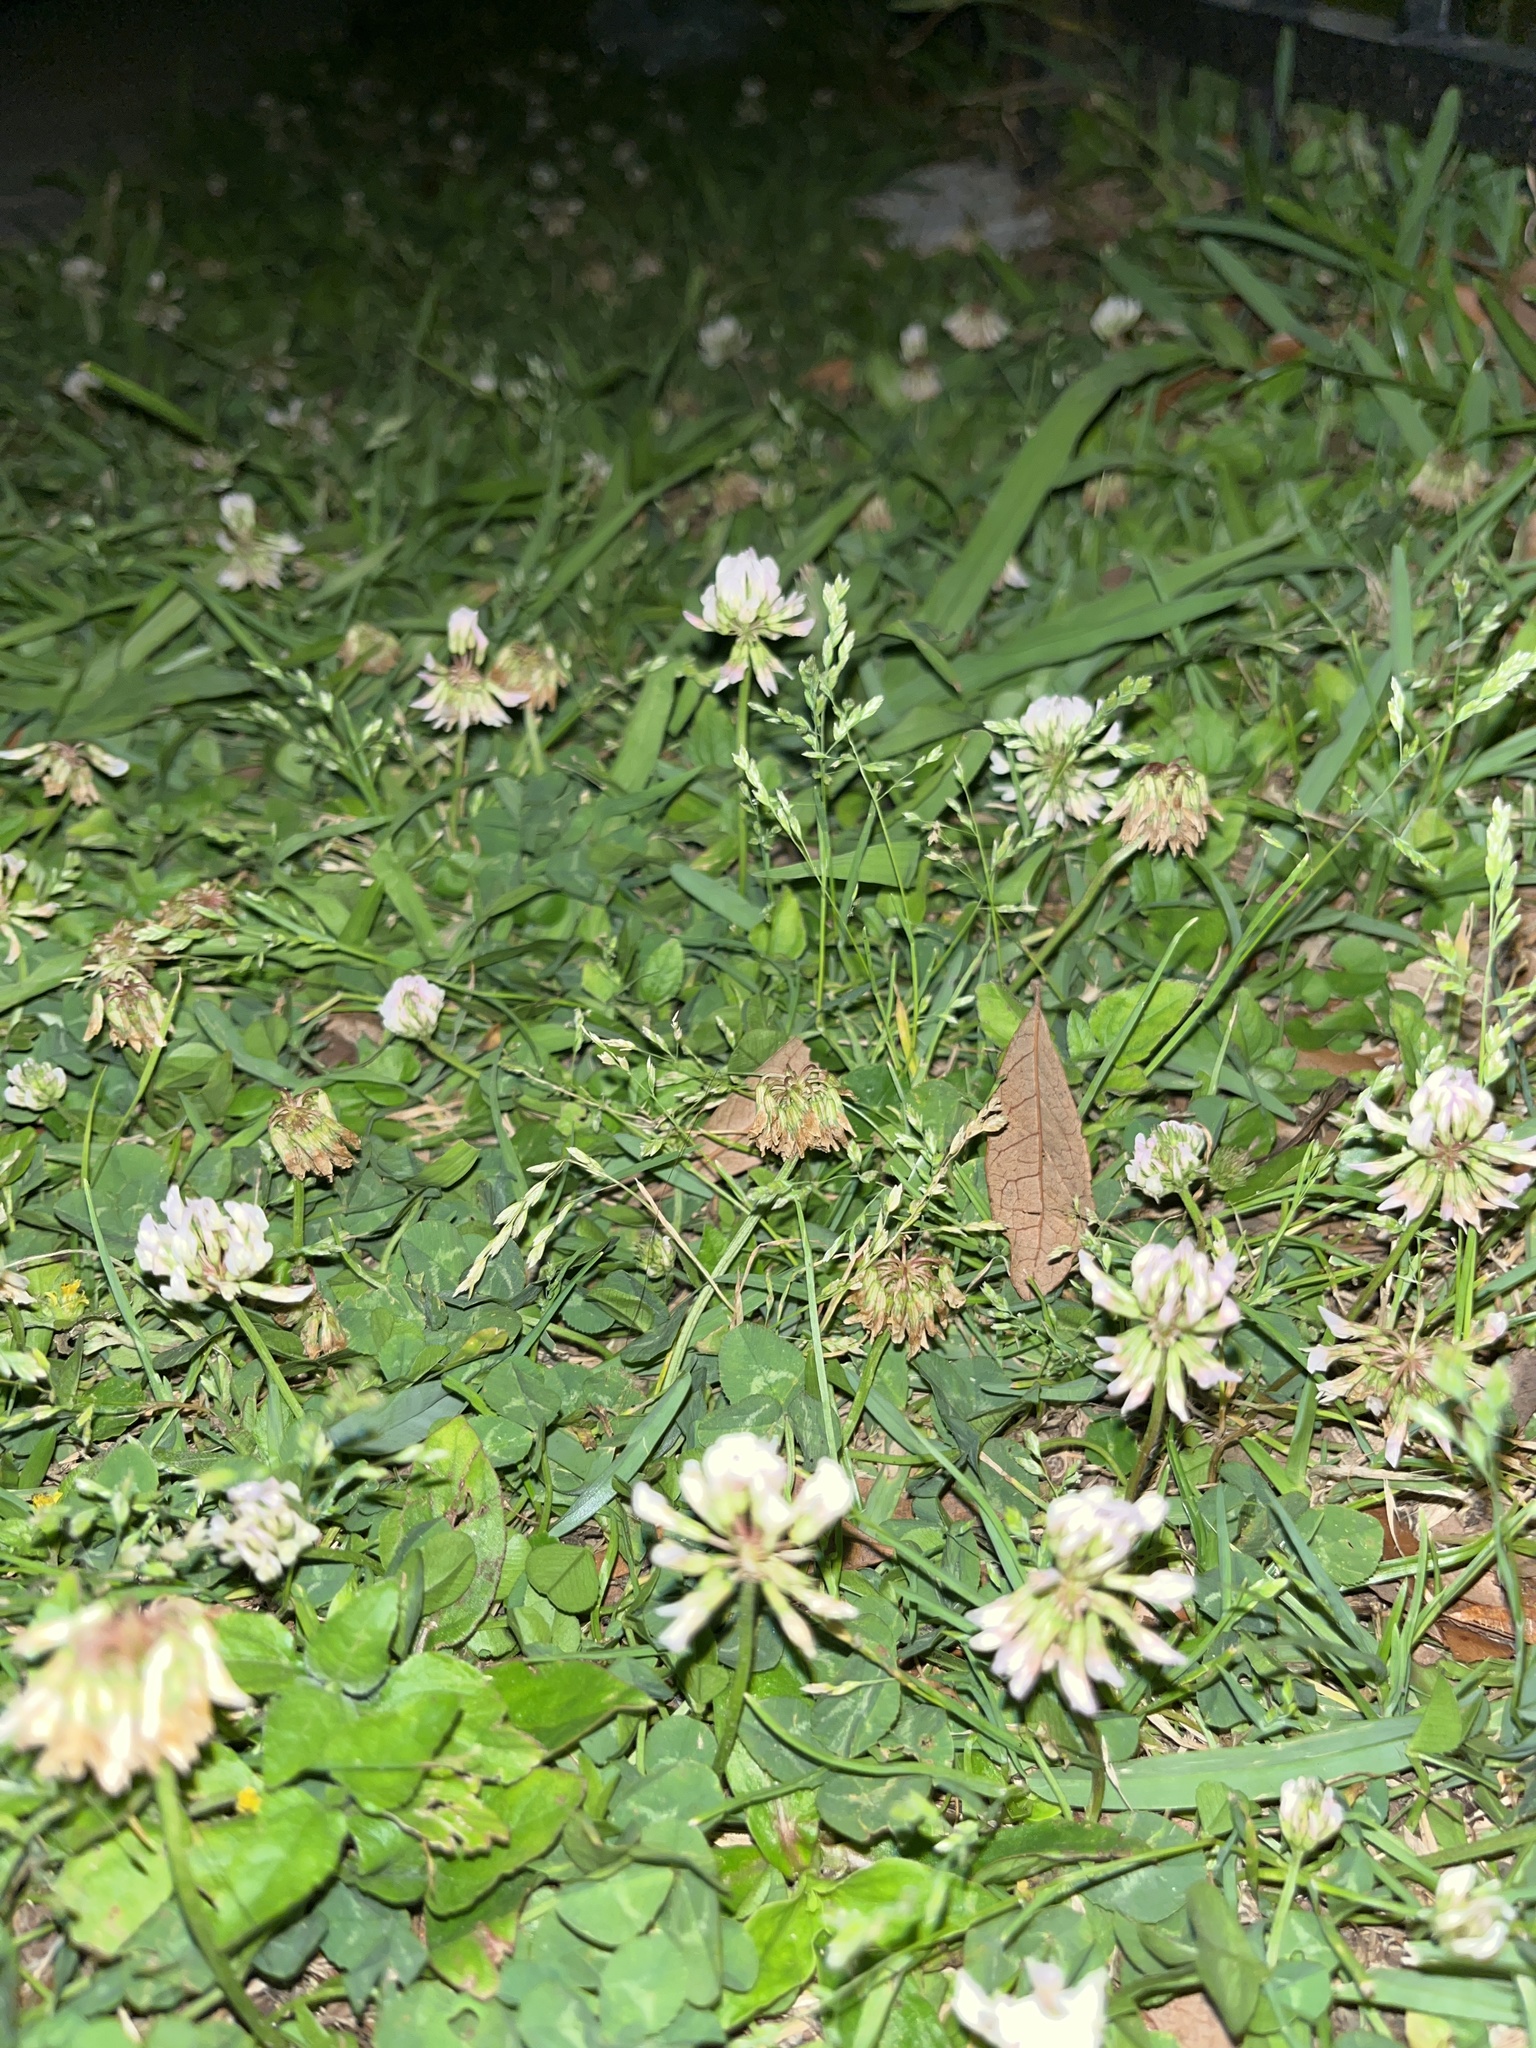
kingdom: Plantae
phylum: Tracheophyta
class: Magnoliopsida
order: Fabales
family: Fabaceae
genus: Trifolium
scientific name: Trifolium repens
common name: White clover
